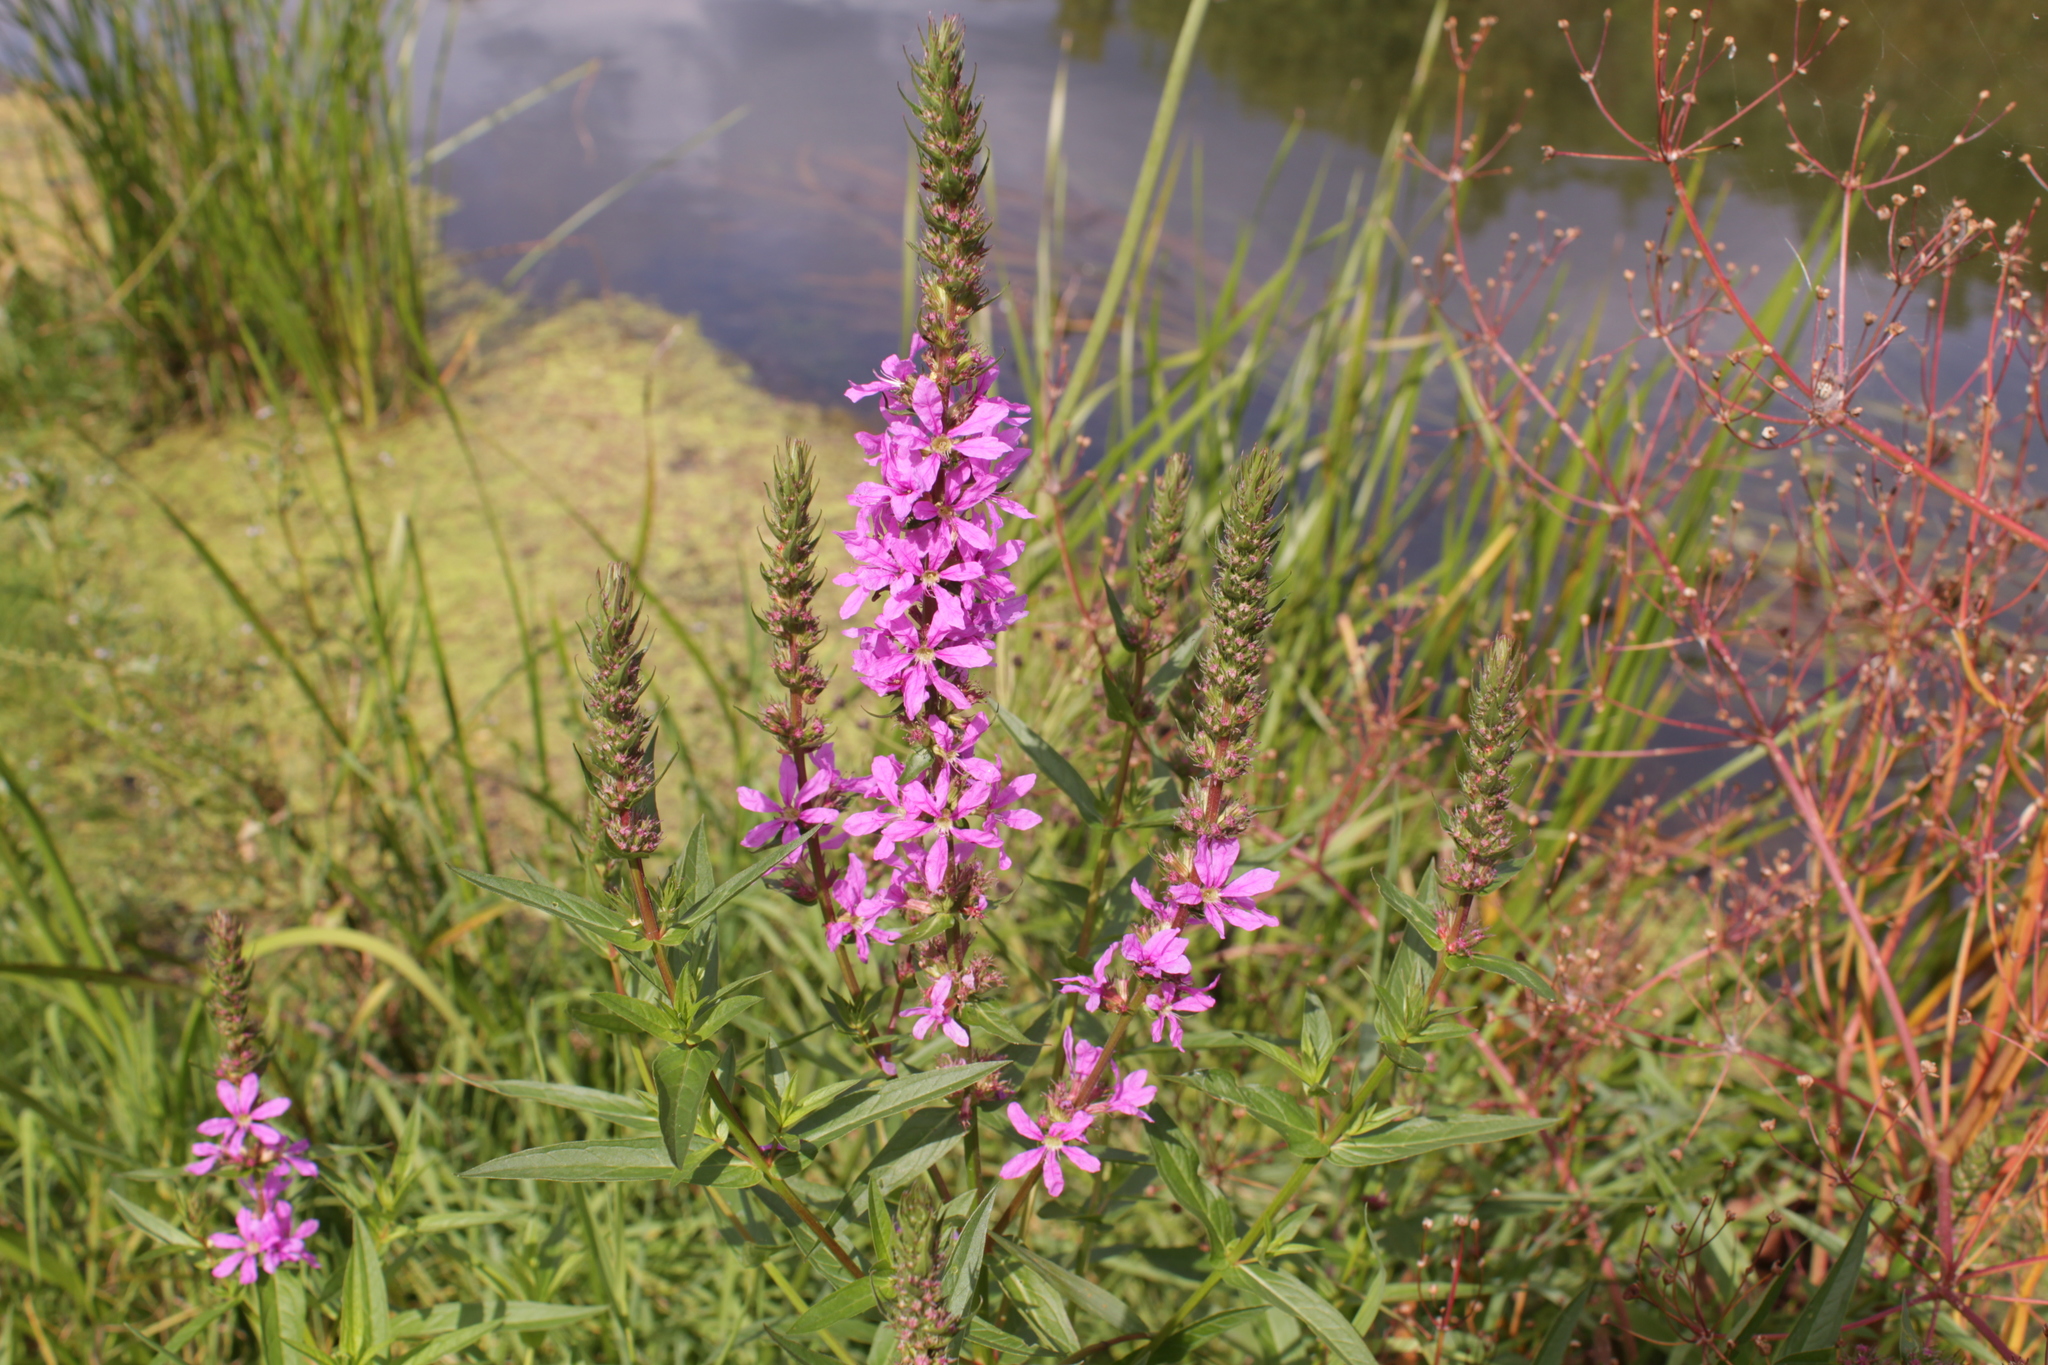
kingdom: Plantae
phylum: Tracheophyta
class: Magnoliopsida
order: Myrtales
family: Lythraceae
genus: Lythrum
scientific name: Lythrum salicaria
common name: Purple loosestrife
